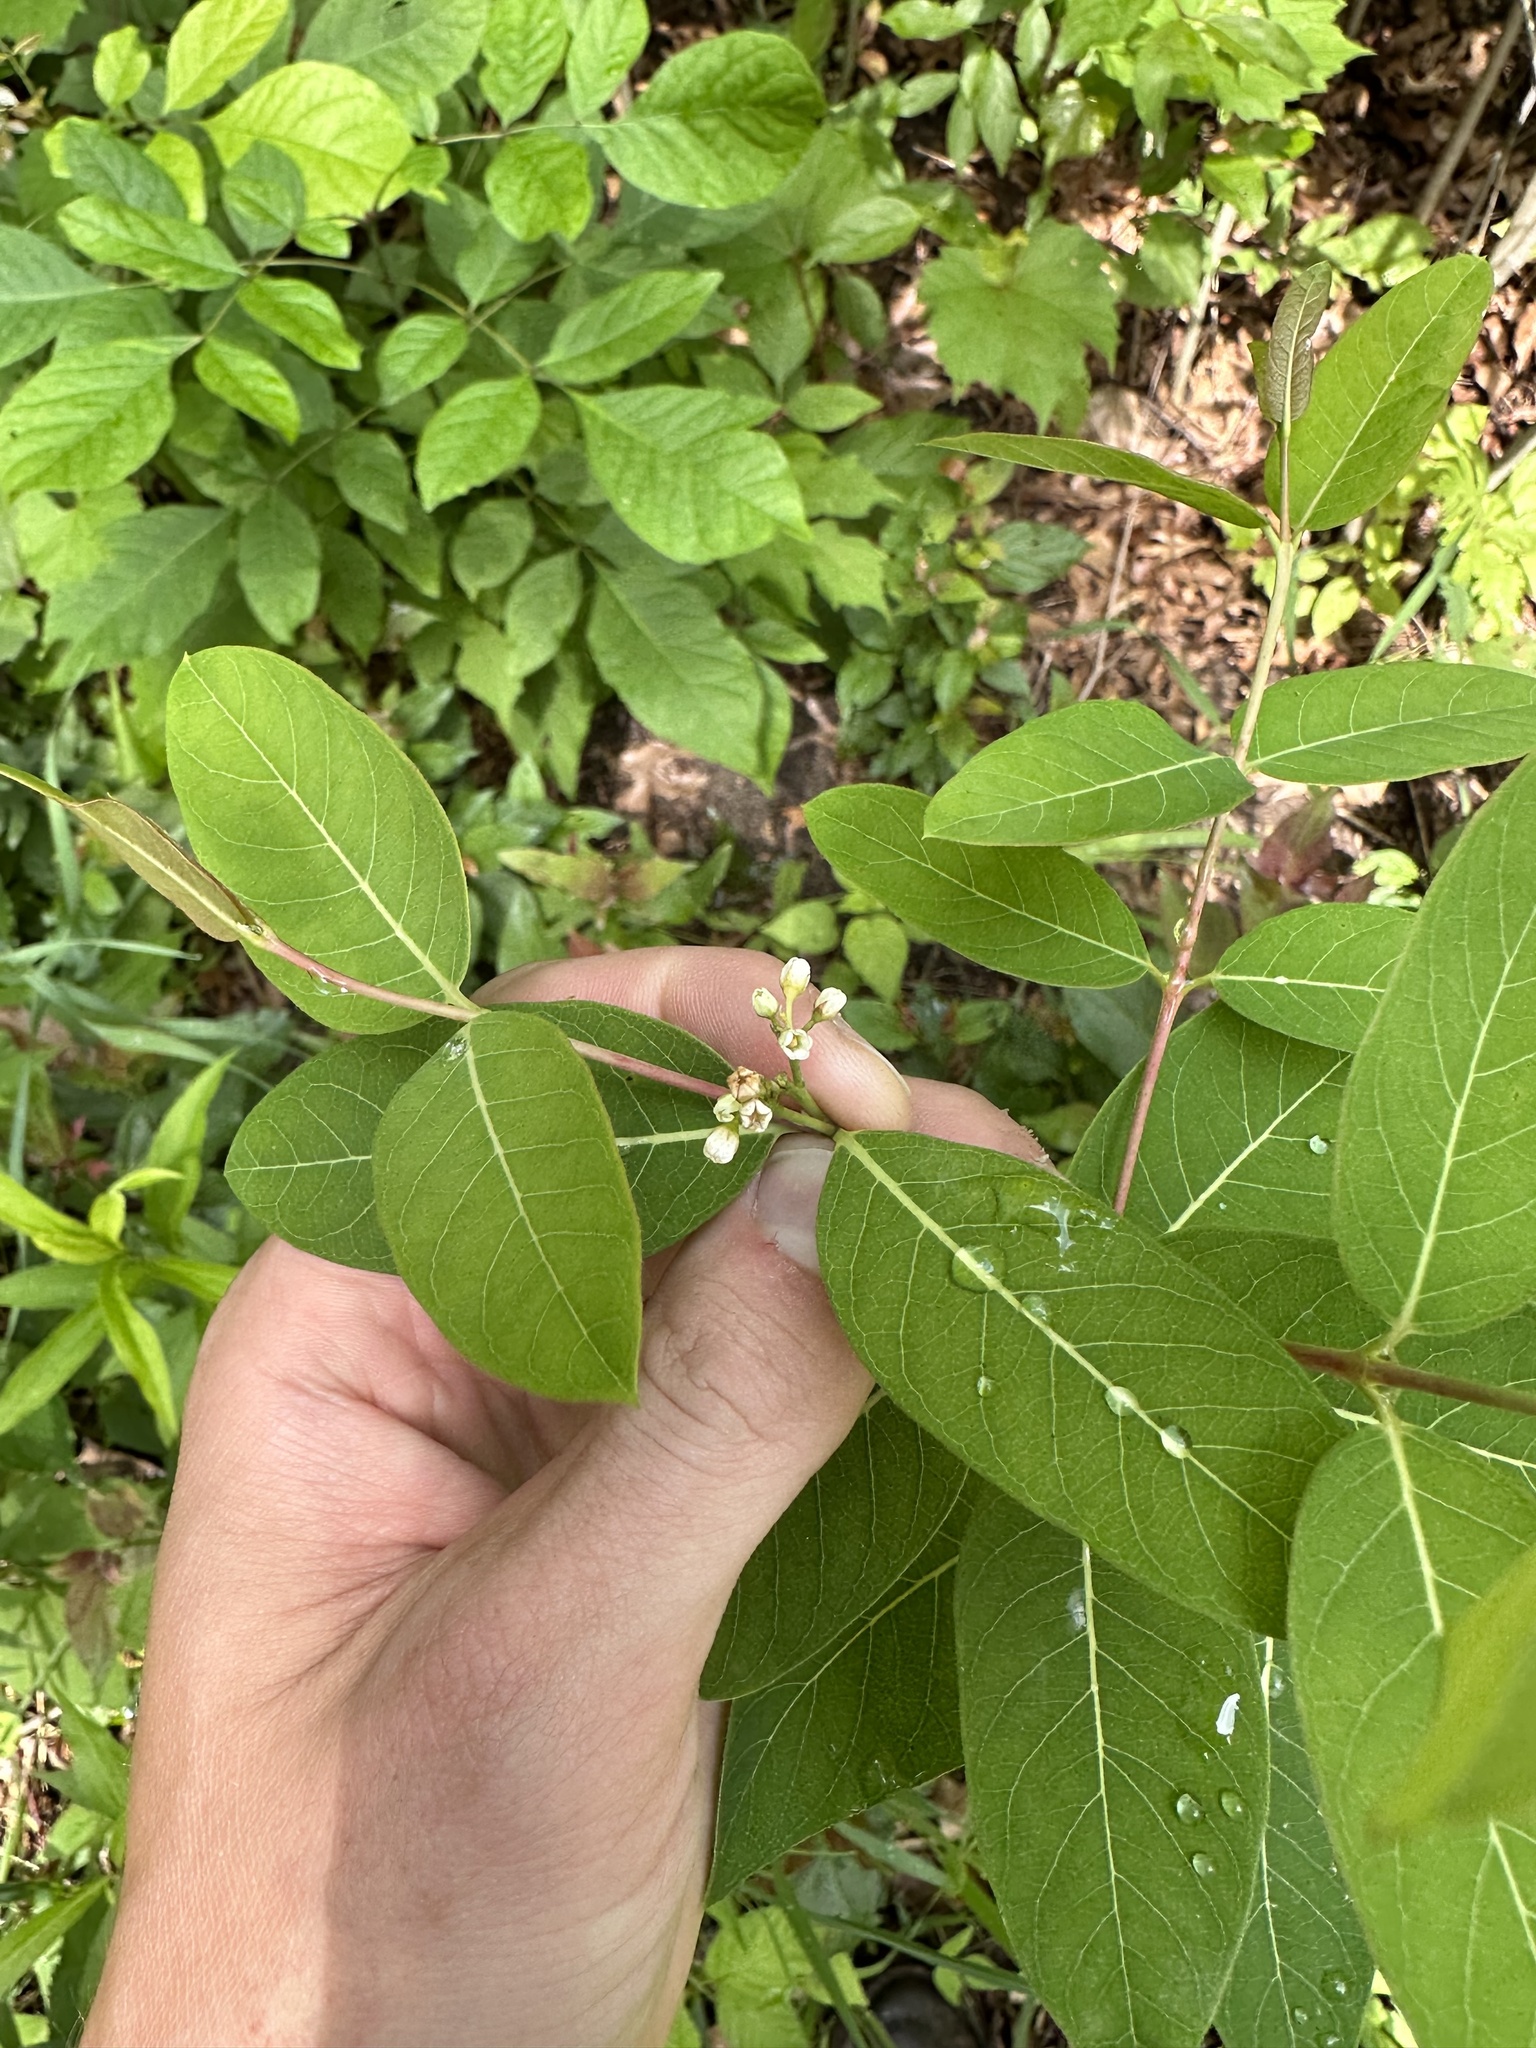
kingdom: Plantae
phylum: Tracheophyta
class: Magnoliopsida
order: Gentianales
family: Apocynaceae
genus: Apocynum
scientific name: Apocynum cannabinum
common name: Hemp dogbane
